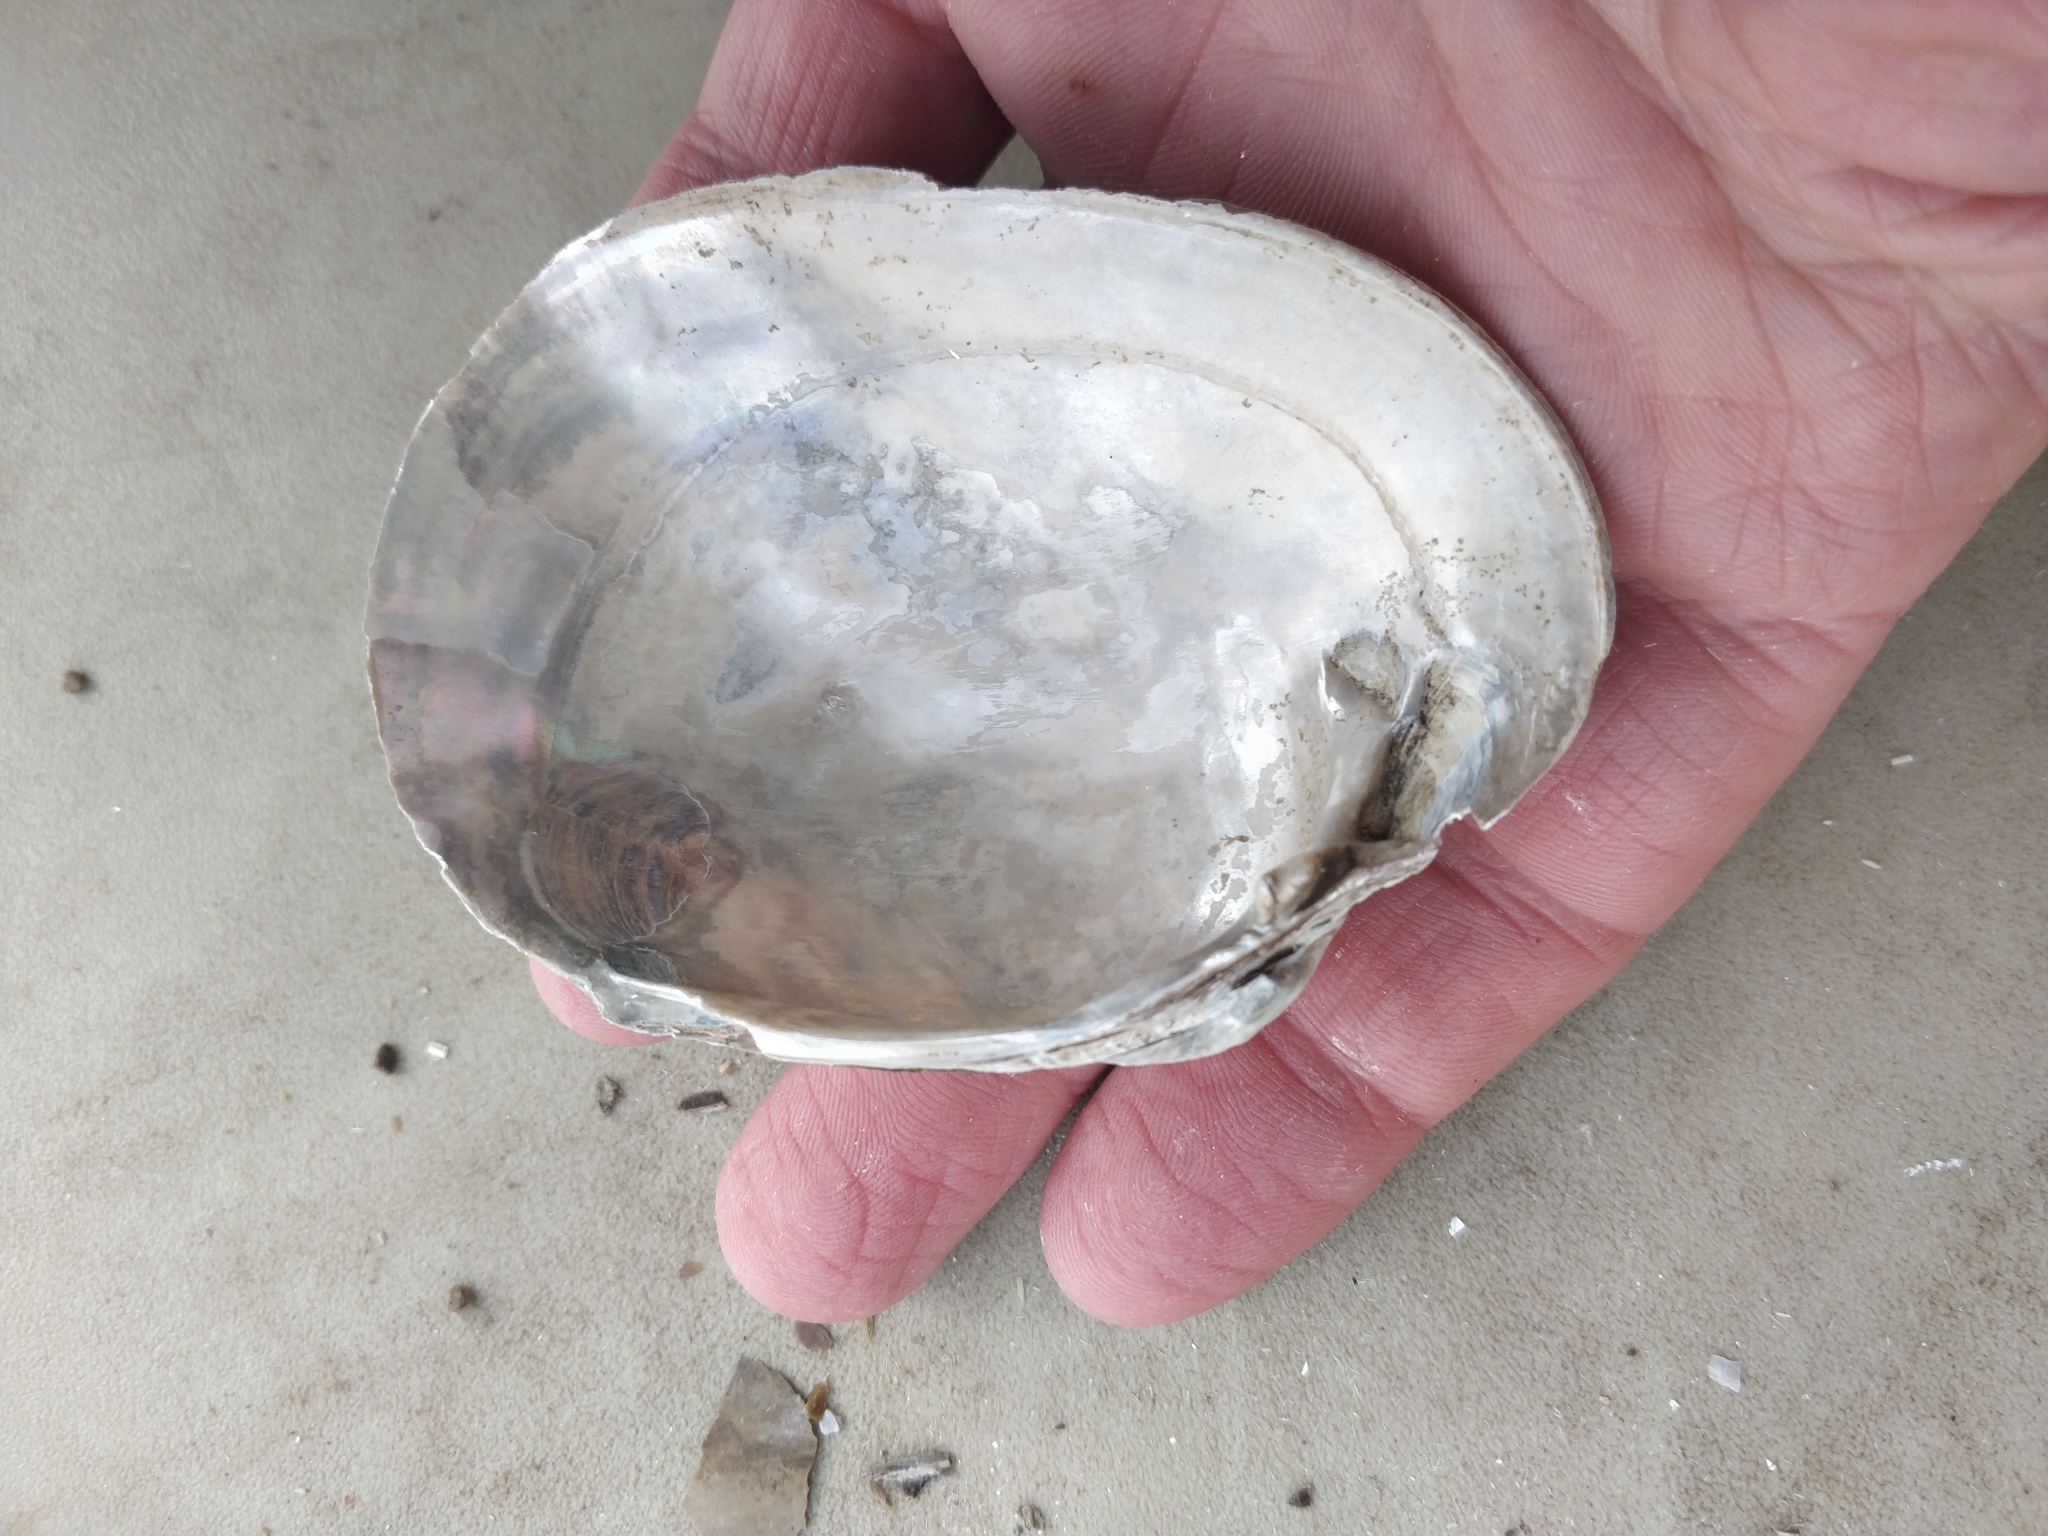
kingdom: Animalia
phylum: Mollusca
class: Bivalvia
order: Unionida
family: Unionidae
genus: Lampsilis
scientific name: Lampsilis cardium
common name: Plain pocketbook
